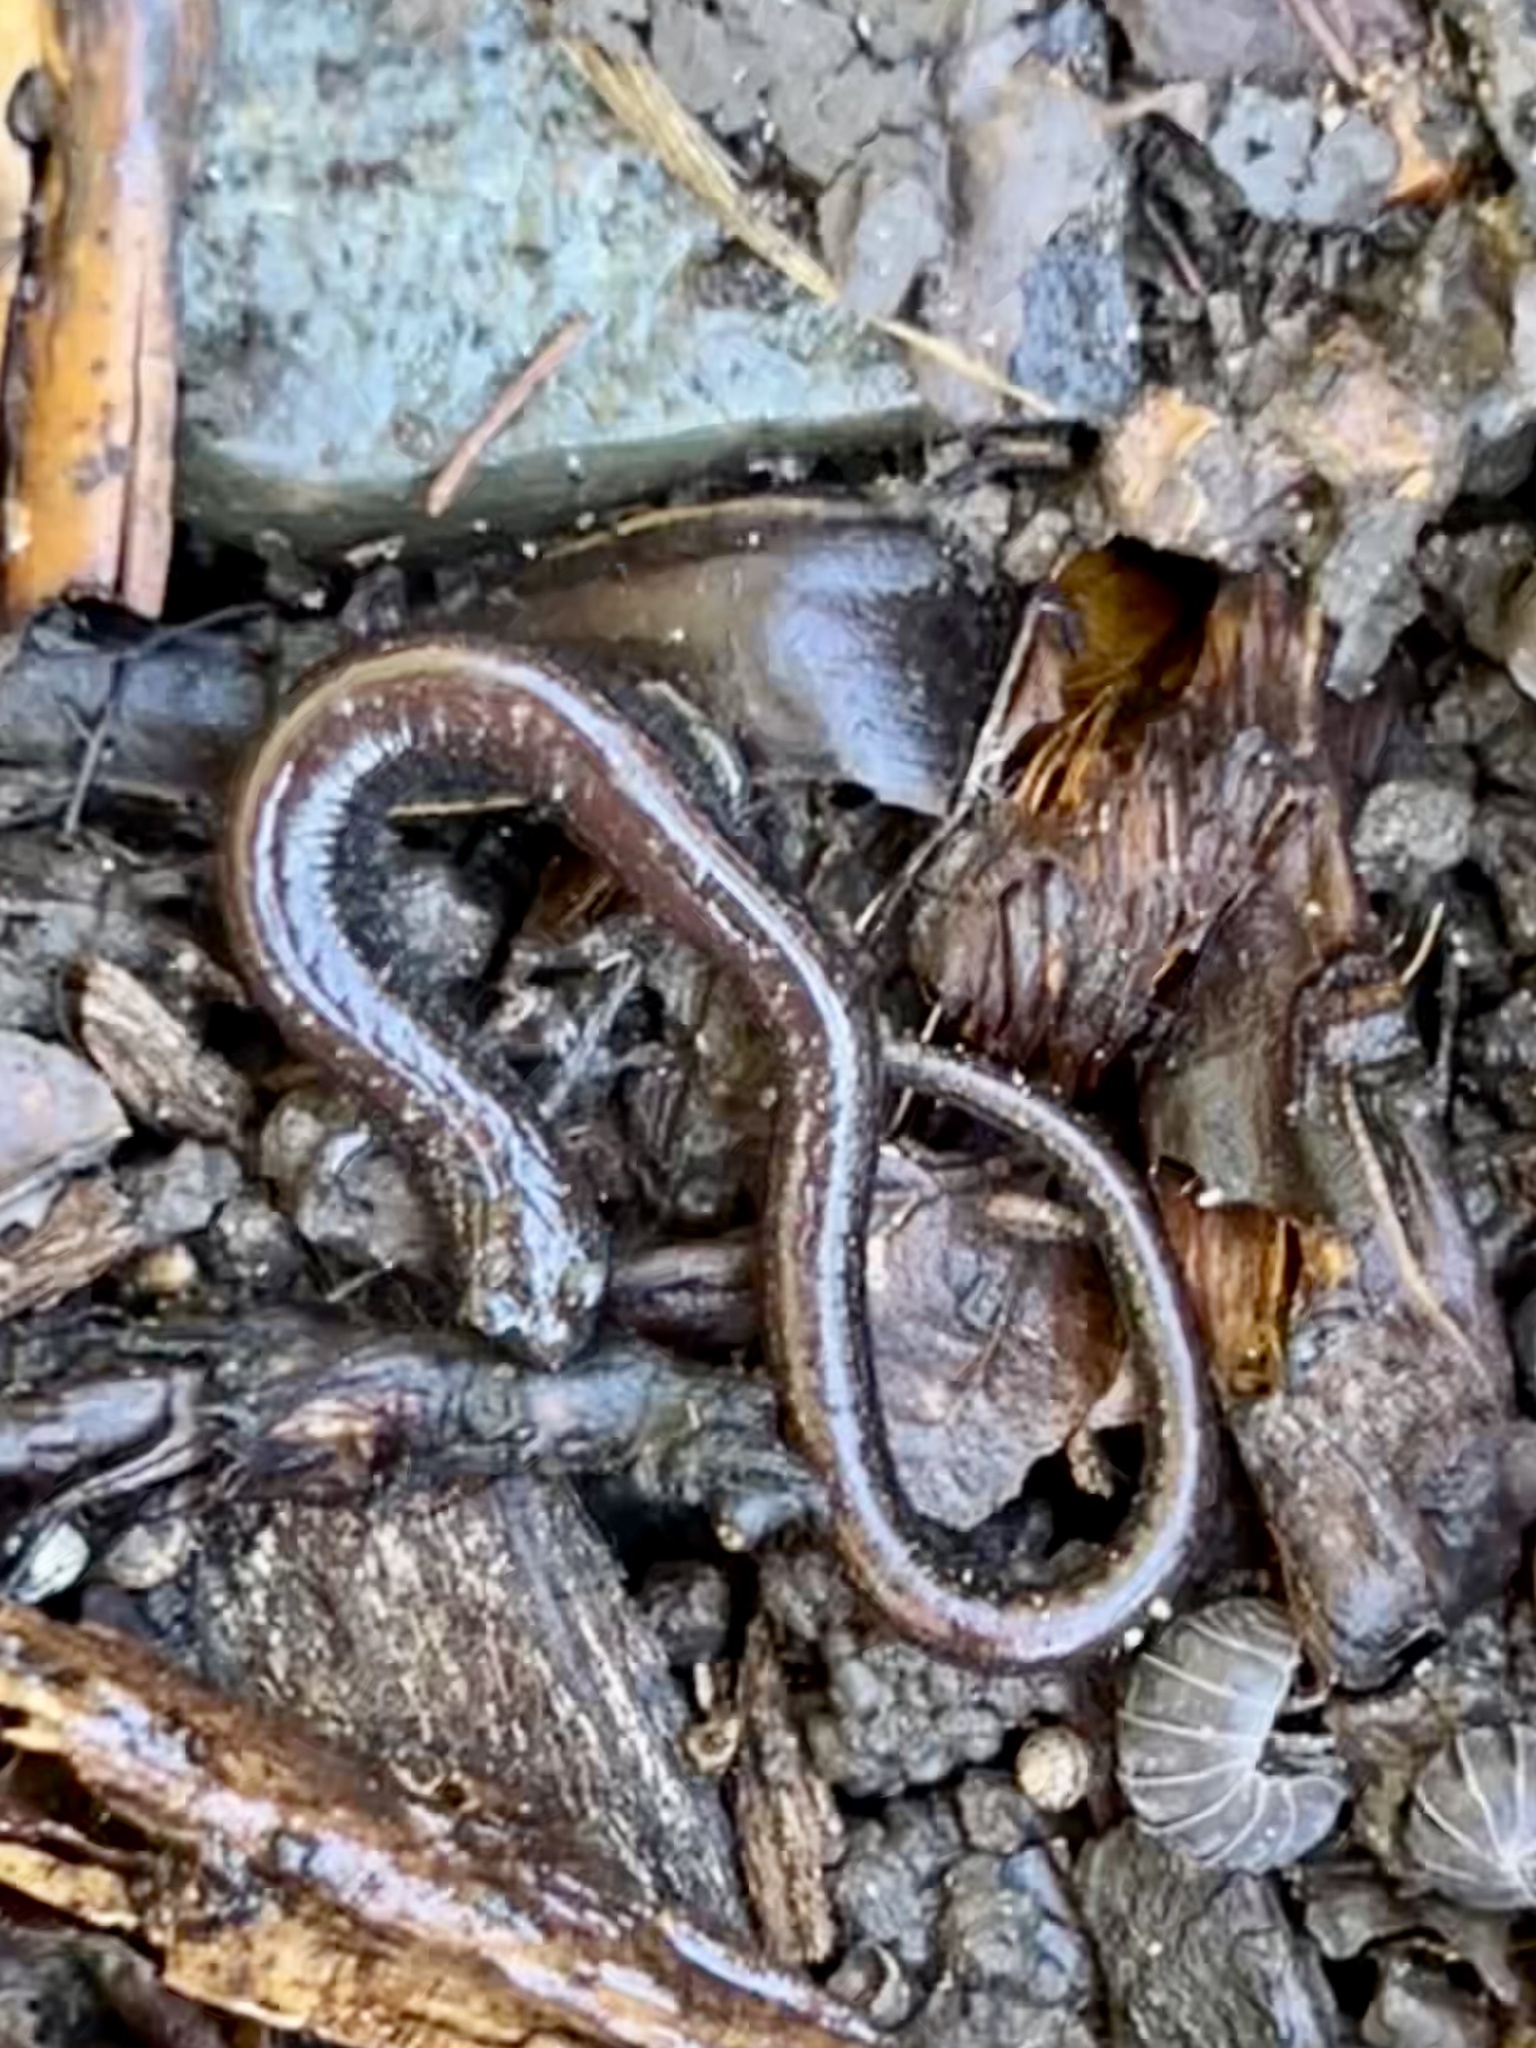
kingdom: Animalia
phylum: Chordata
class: Amphibia
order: Caudata
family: Plethodontidae
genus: Batrachoseps
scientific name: Batrachoseps attenuatus
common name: California slender salamander
